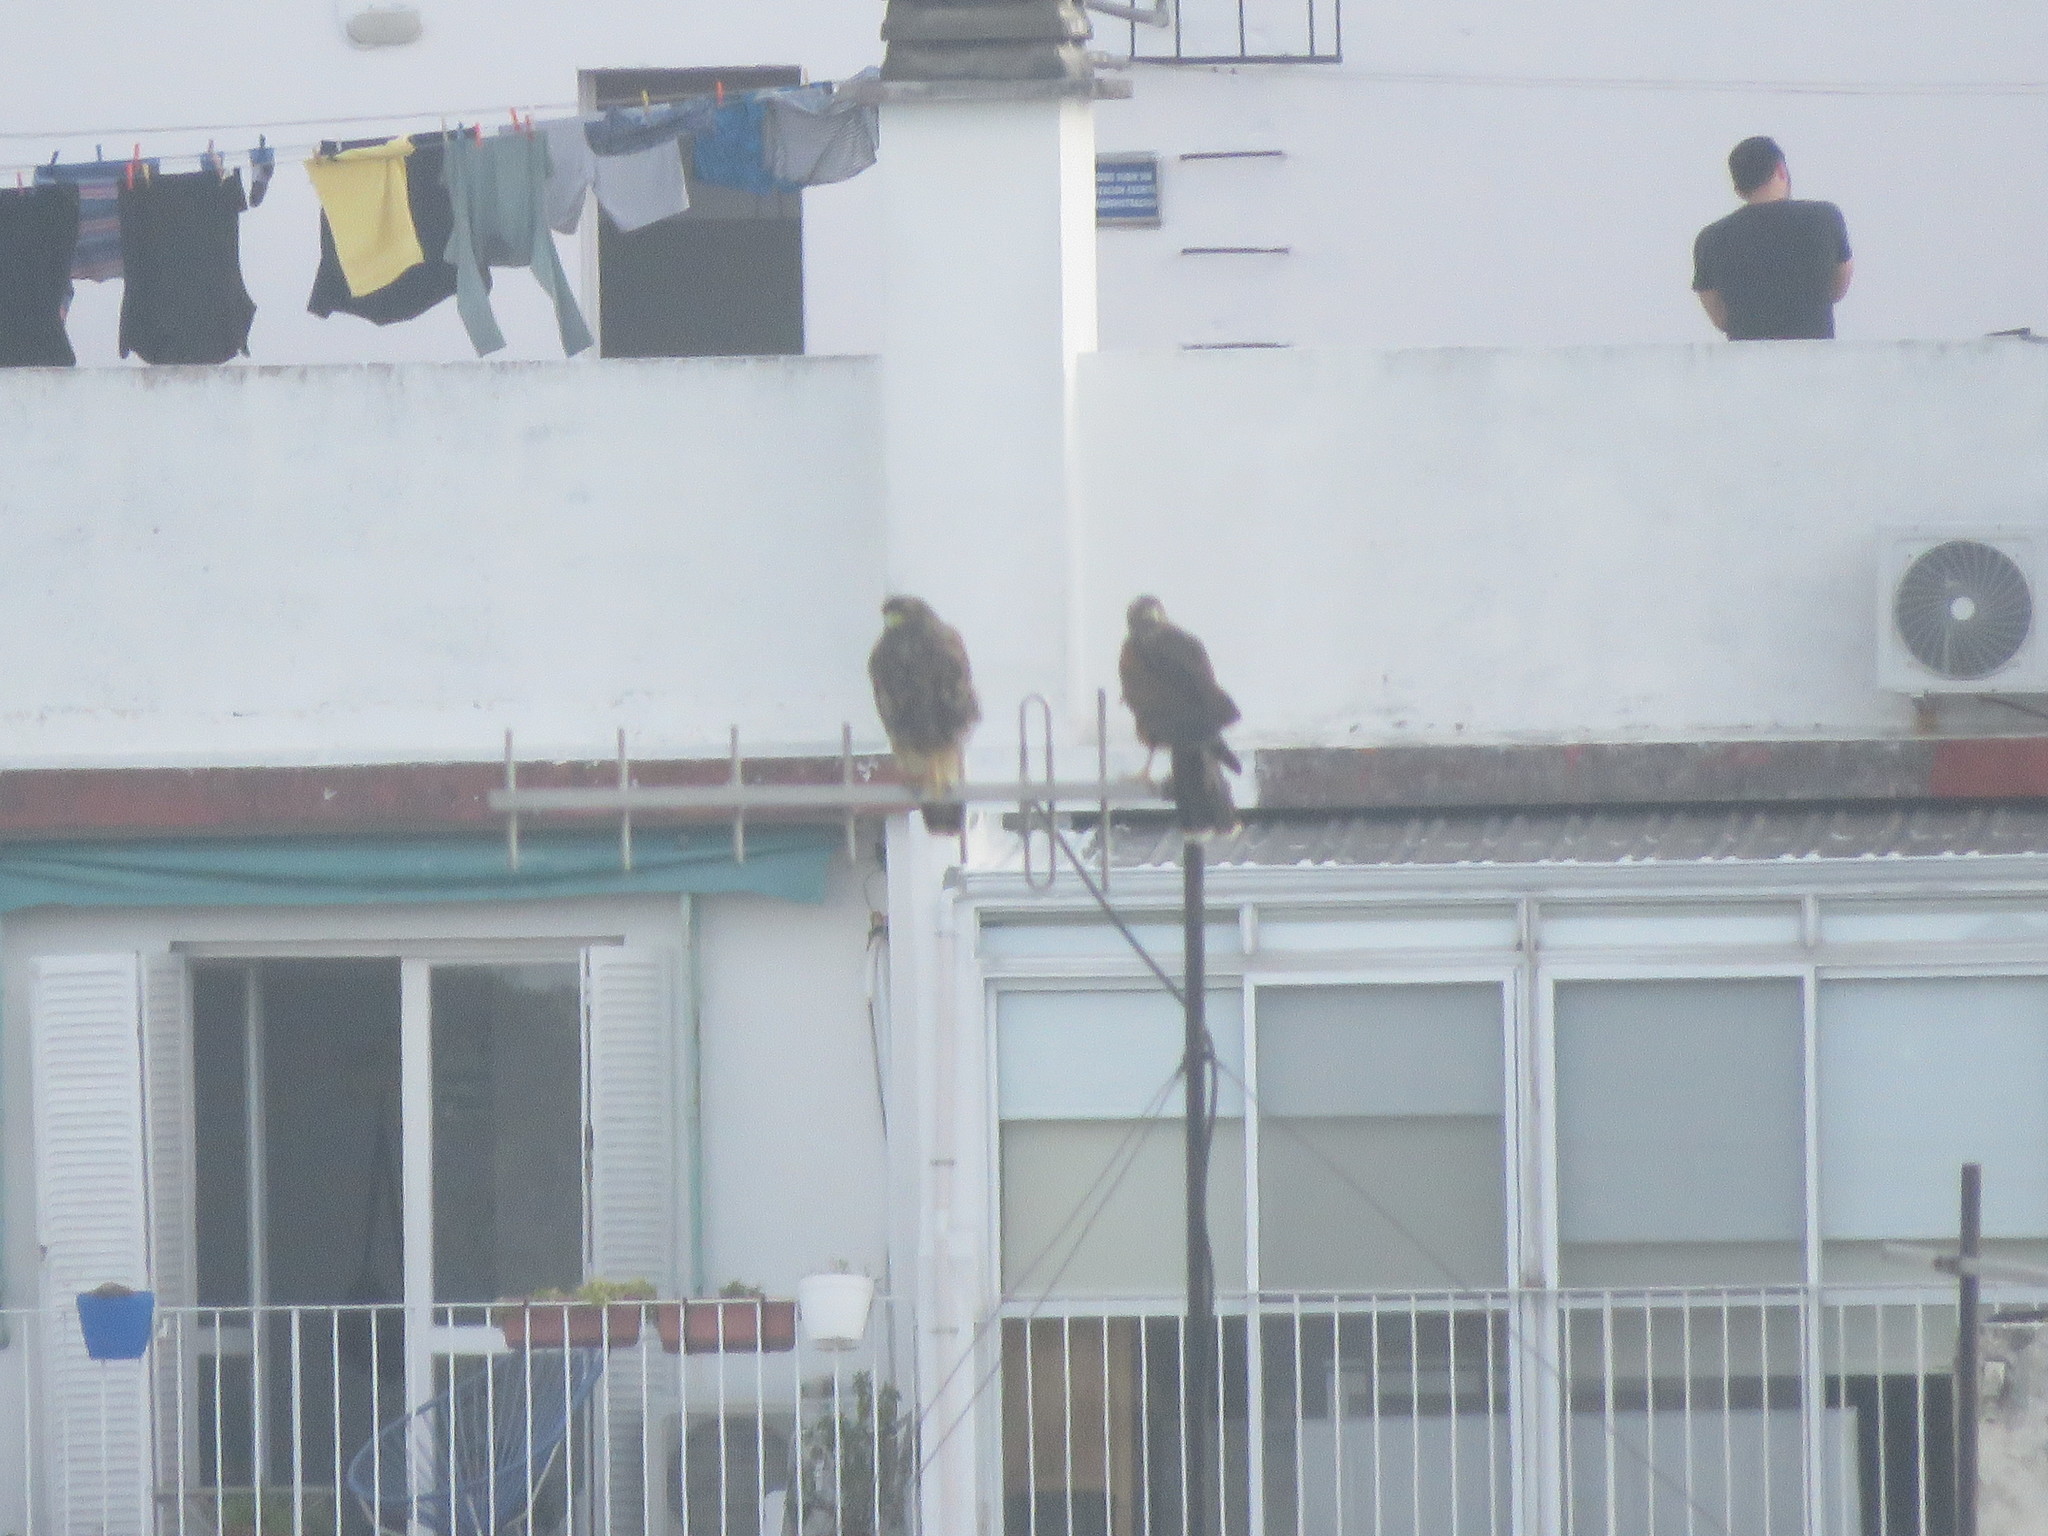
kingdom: Animalia
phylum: Chordata
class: Aves
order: Accipitriformes
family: Accipitridae
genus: Parabuteo
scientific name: Parabuteo unicinctus
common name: Harris's hawk
